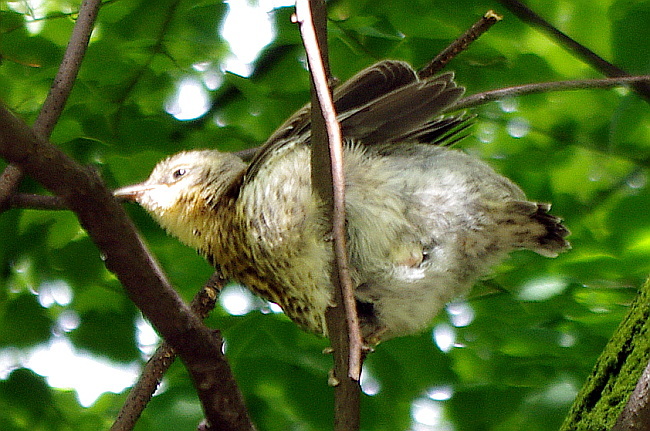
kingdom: Animalia
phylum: Chordata
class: Aves
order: Passeriformes
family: Turdidae
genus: Turdus
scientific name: Turdus pilaris
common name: Fieldfare
